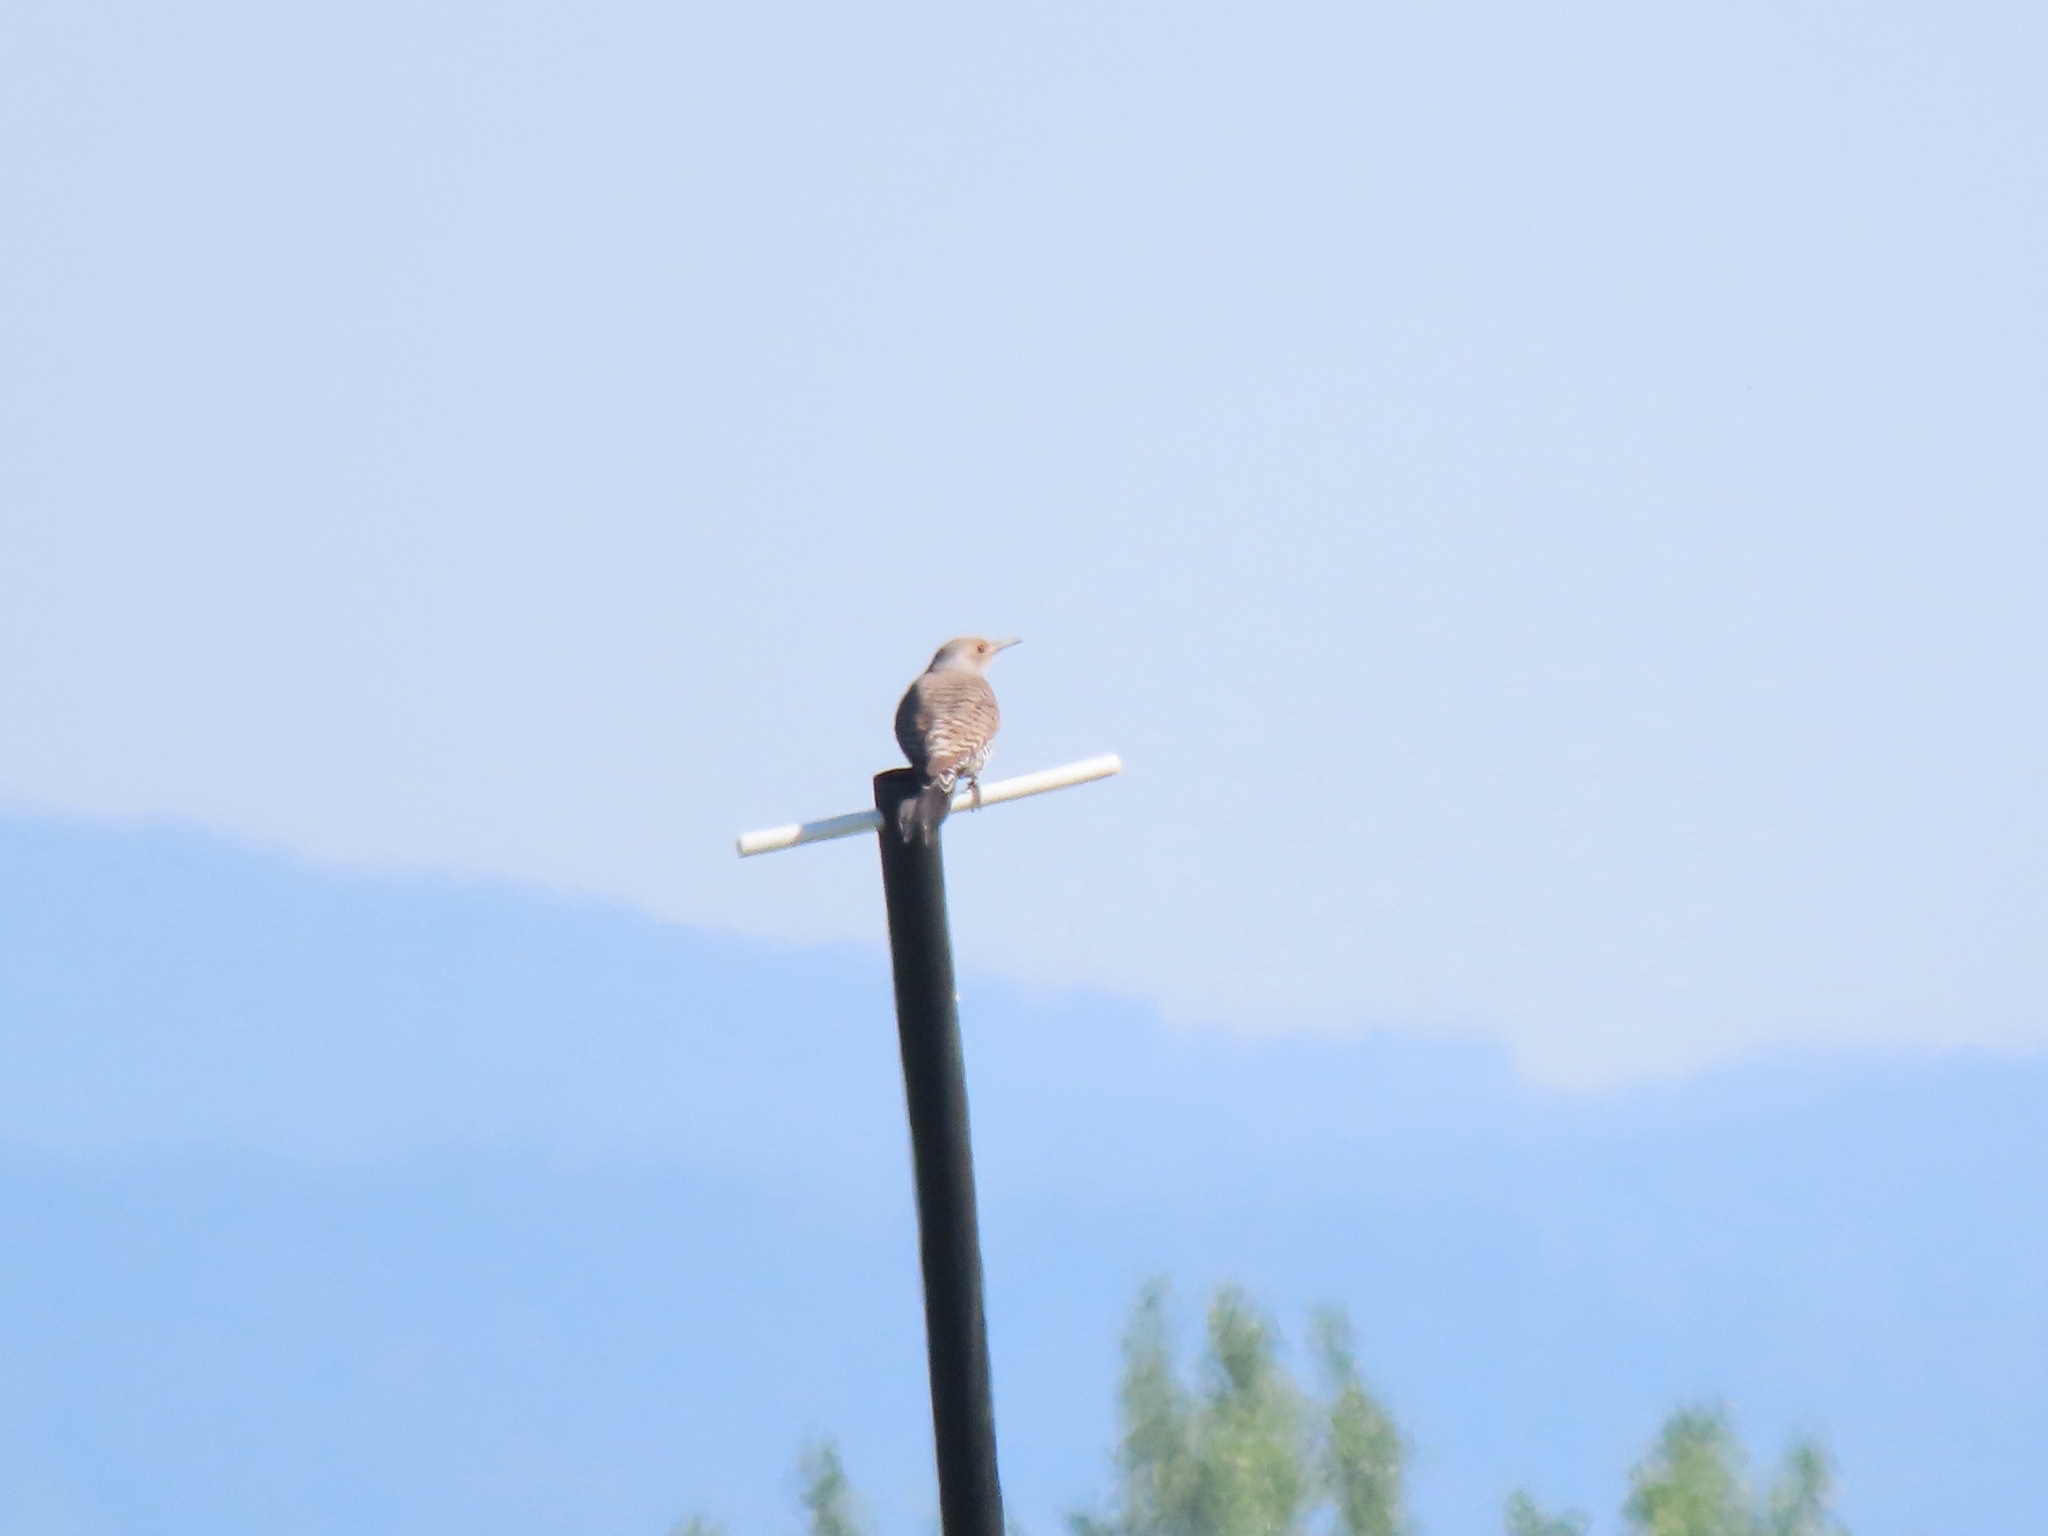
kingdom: Animalia
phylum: Chordata
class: Aves
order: Piciformes
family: Picidae
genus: Colaptes
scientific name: Colaptes auratus
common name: Northern flicker
